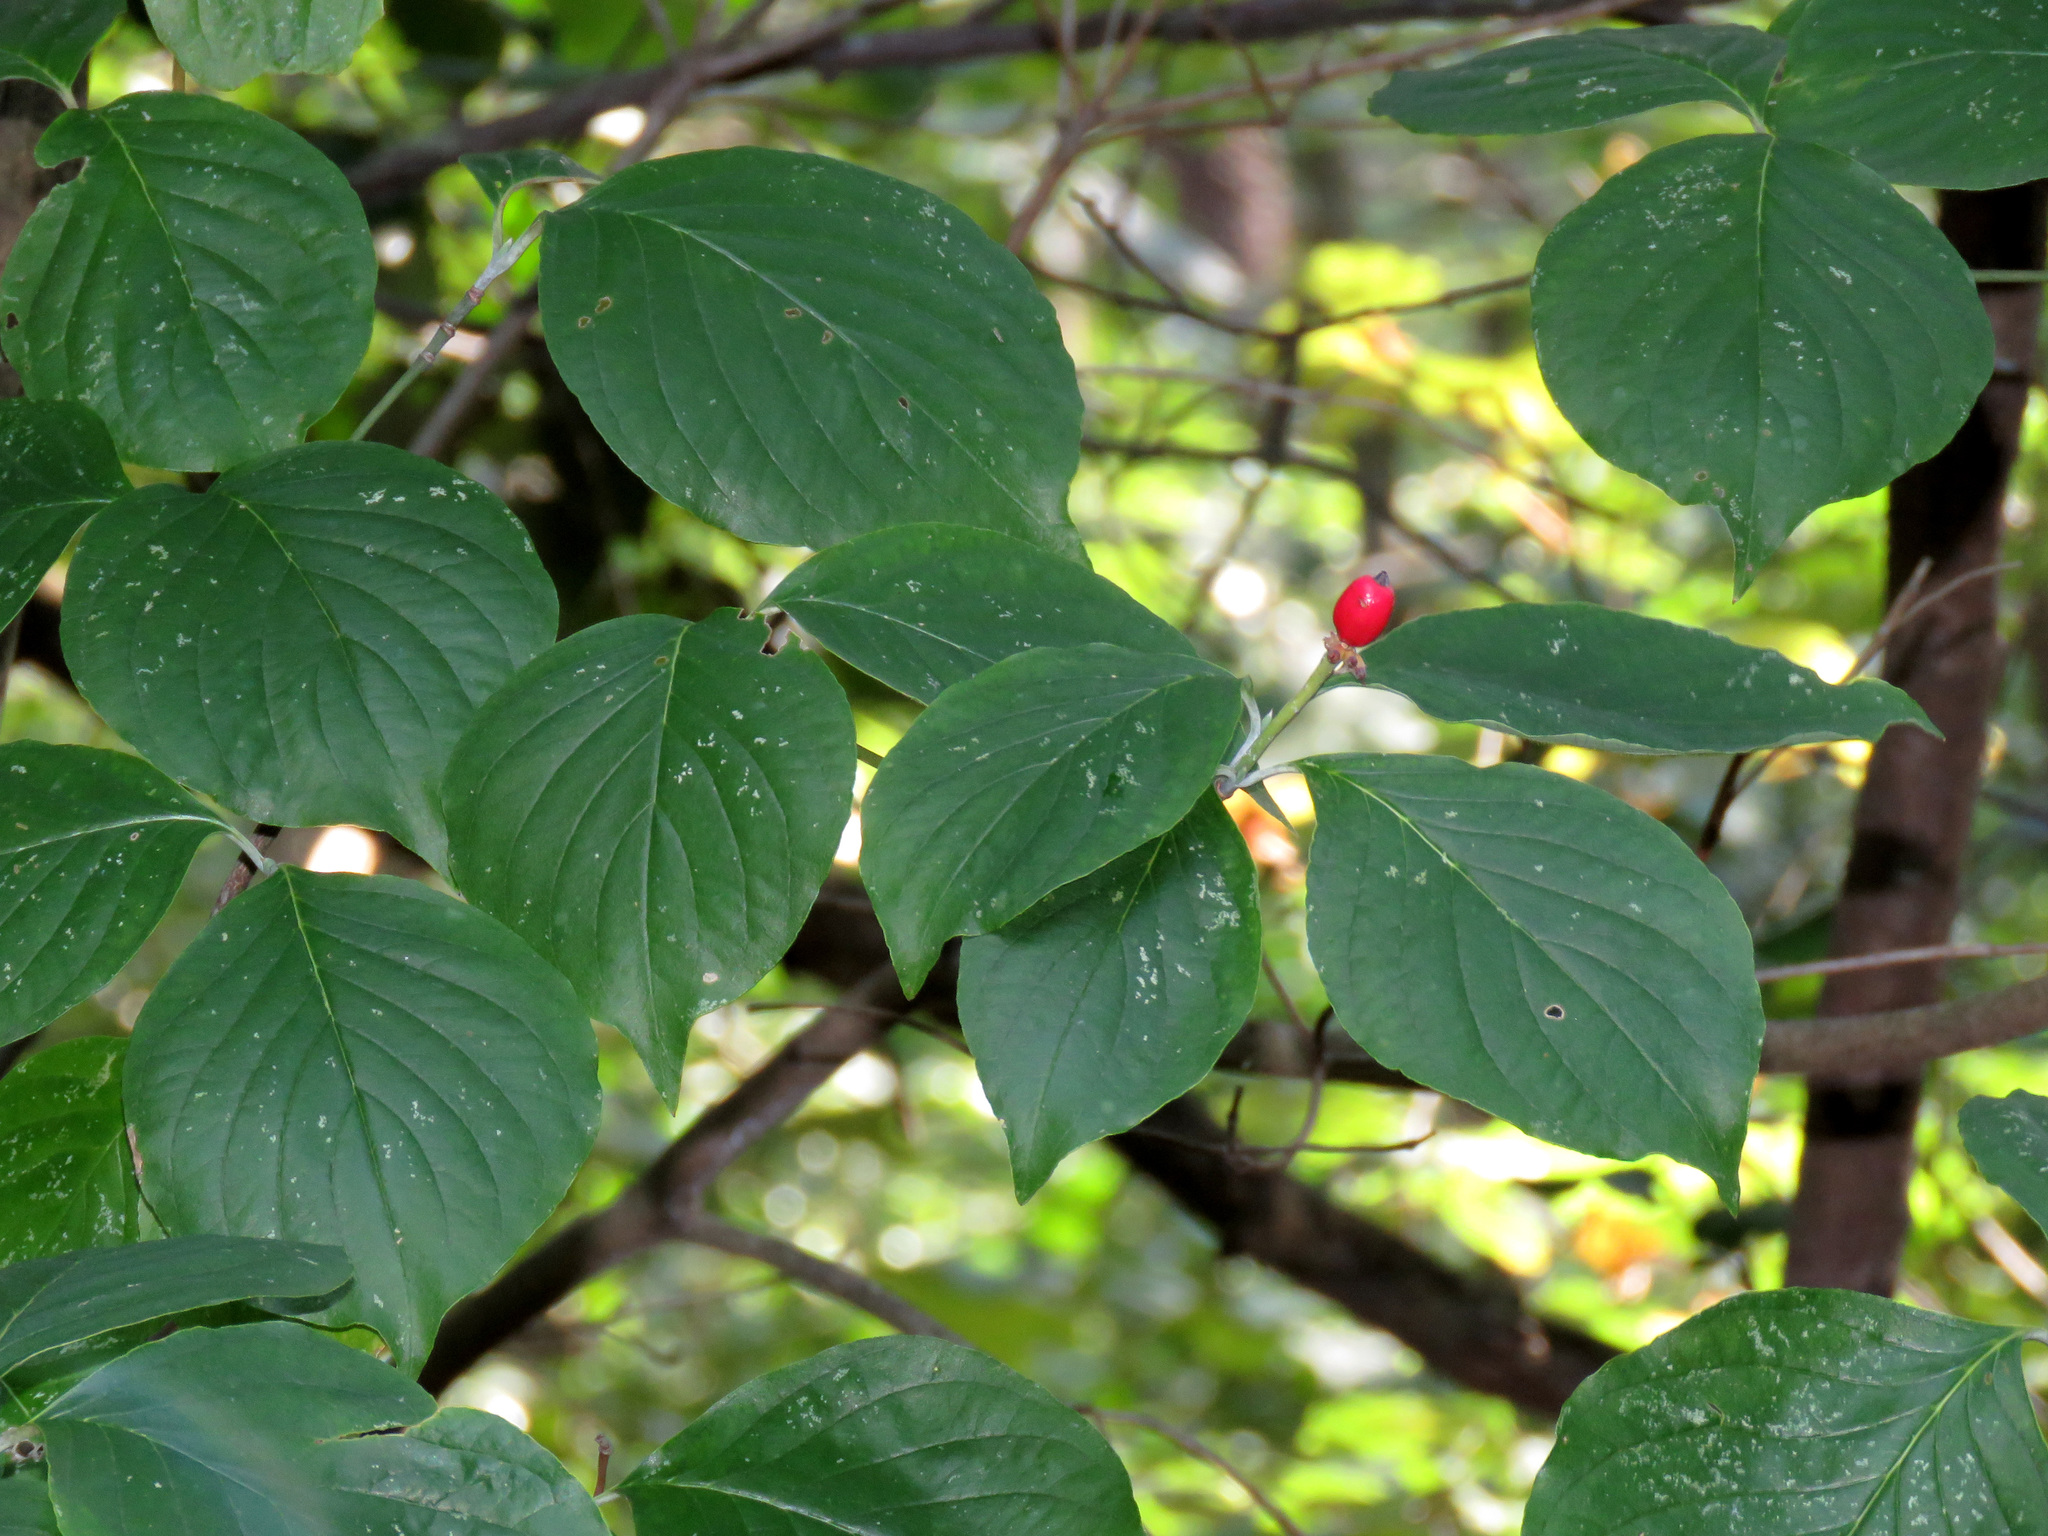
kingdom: Plantae
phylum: Tracheophyta
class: Magnoliopsida
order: Cornales
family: Cornaceae
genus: Cornus
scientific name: Cornus florida
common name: Flowering dogwood
